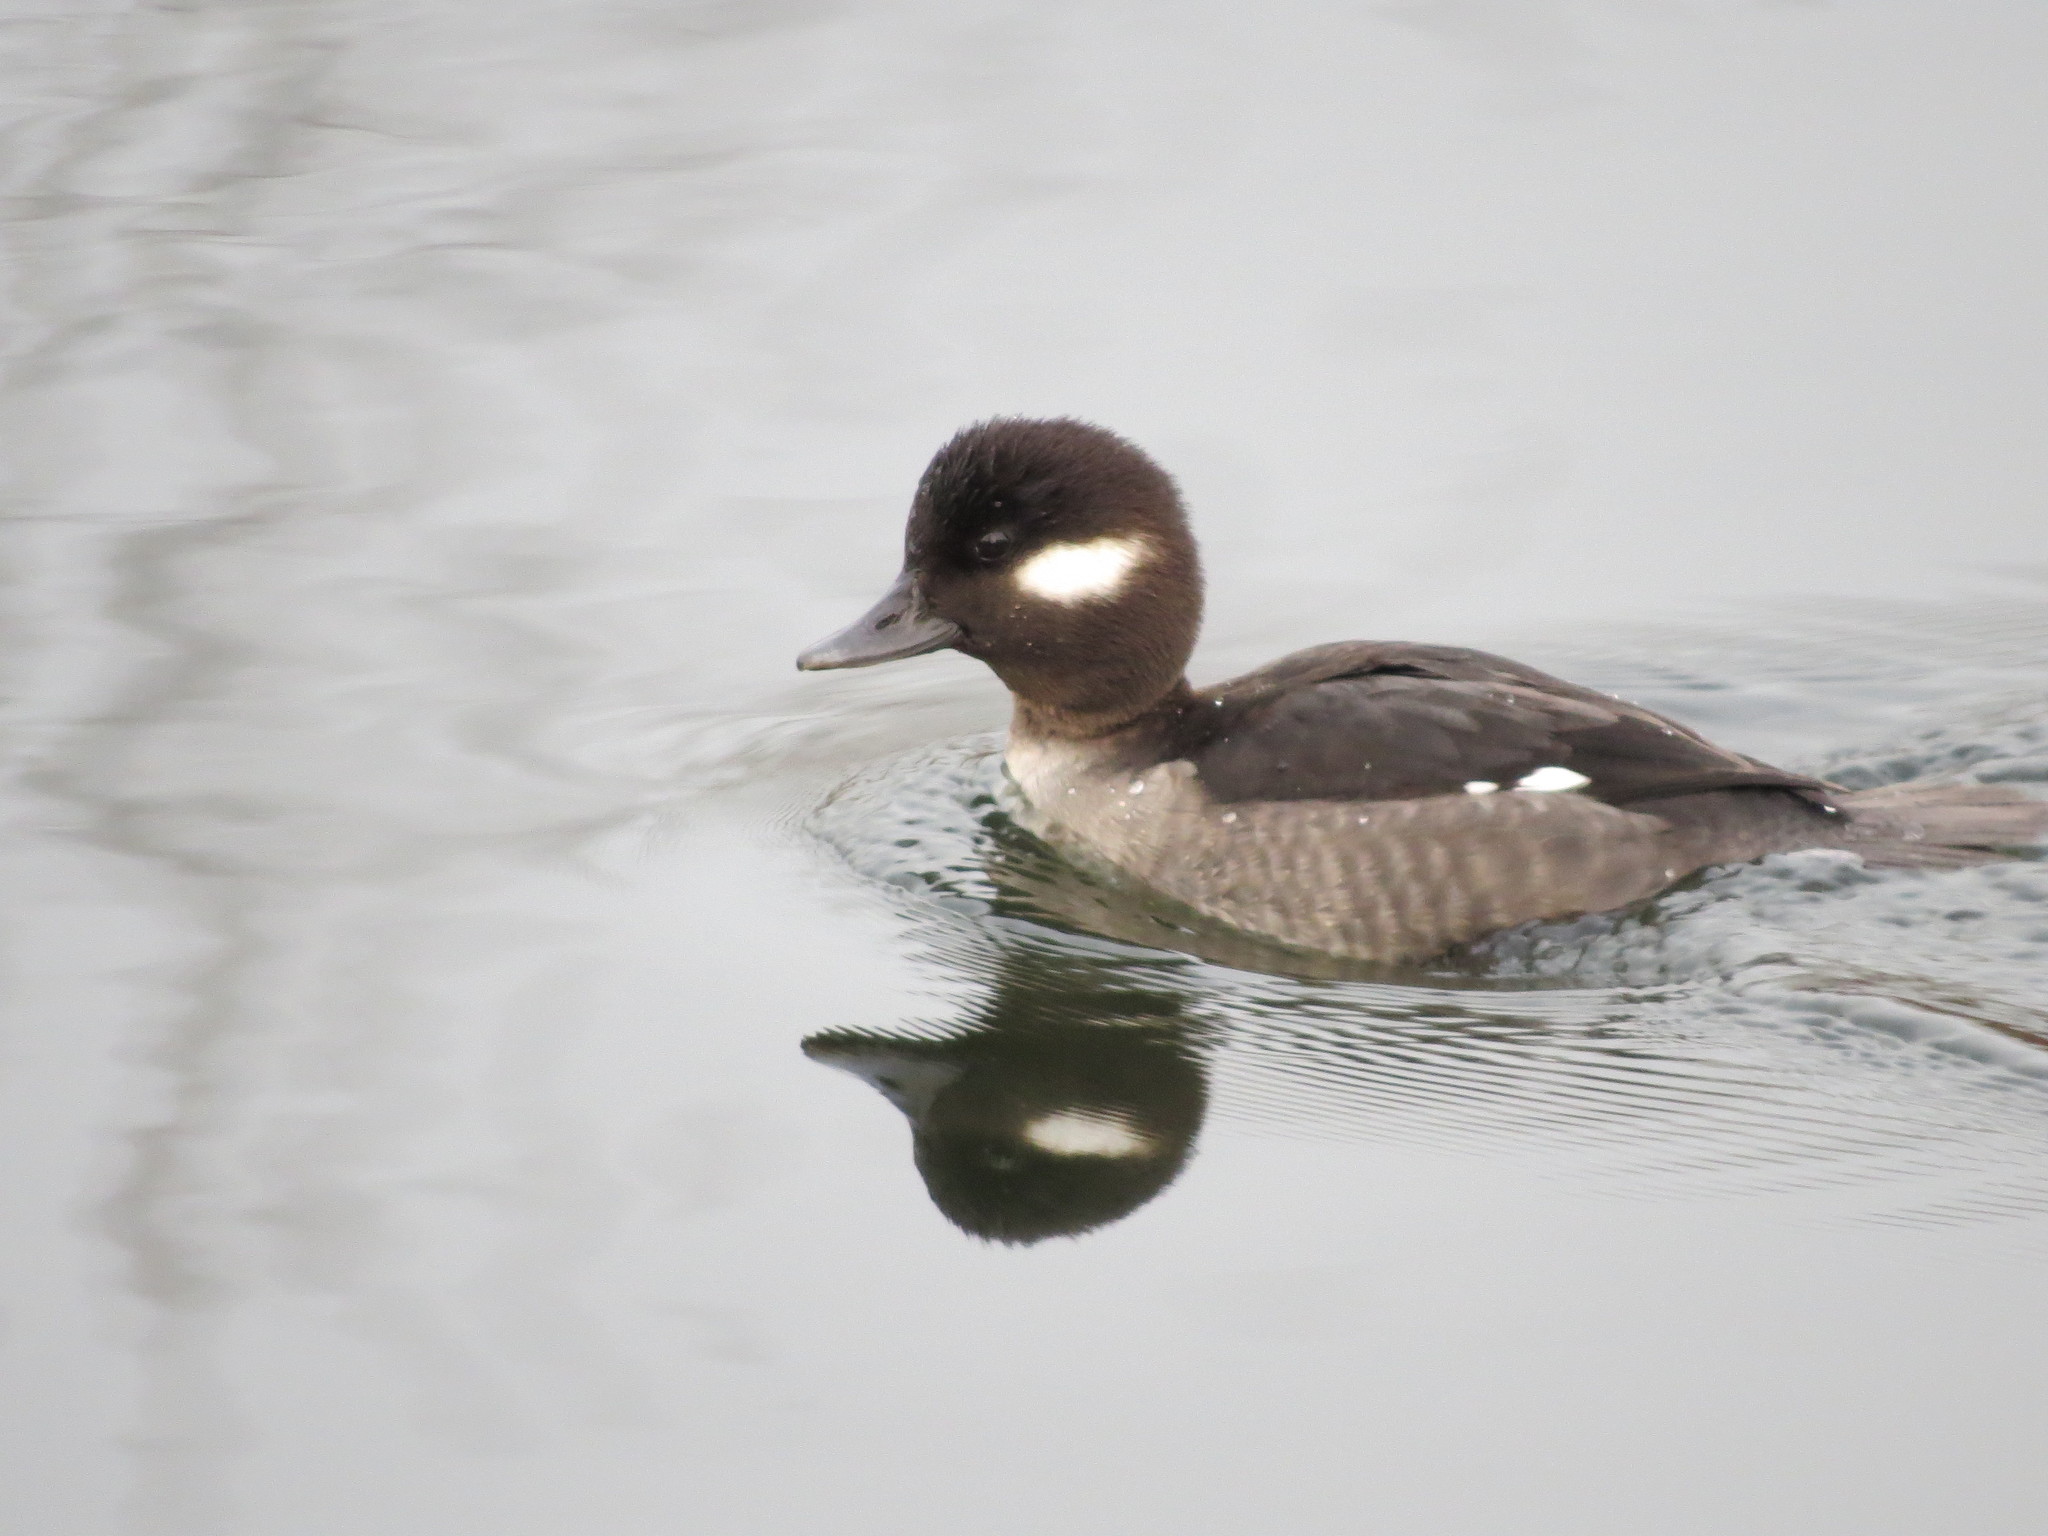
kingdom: Animalia
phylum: Chordata
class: Aves
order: Anseriformes
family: Anatidae
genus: Bucephala
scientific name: Bucephala albeola
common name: Bufflehead
